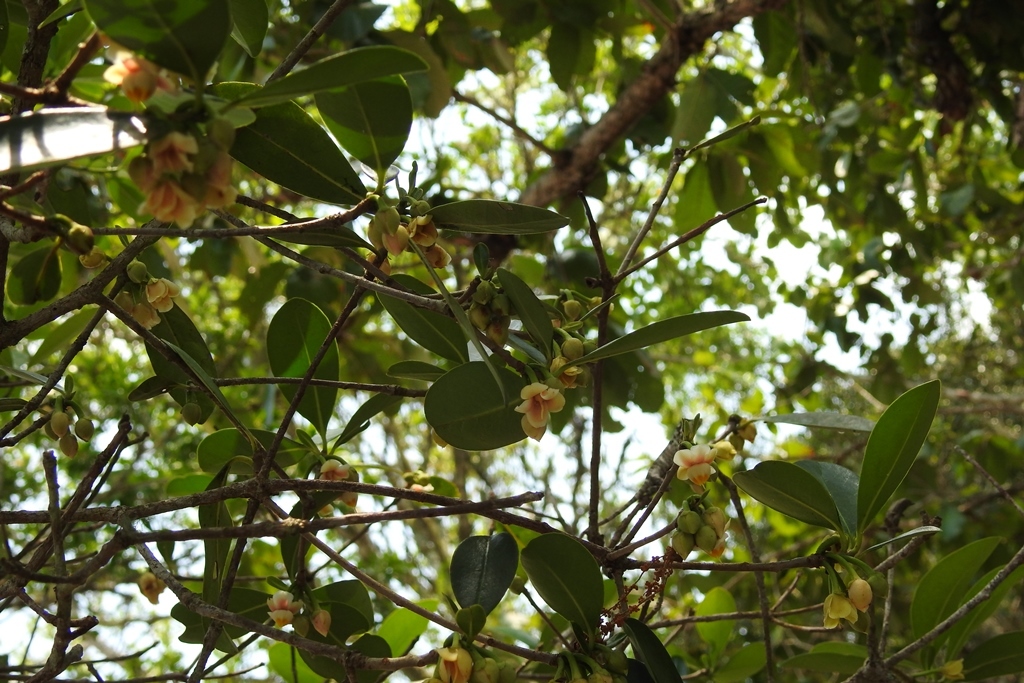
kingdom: Plantae
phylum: Tracheophyta
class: Magnoliopsida
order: Ericales
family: Pentaphylacaceae
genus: Ternstroemia
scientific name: Ternstroemia tepezapote
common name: Copey vera
